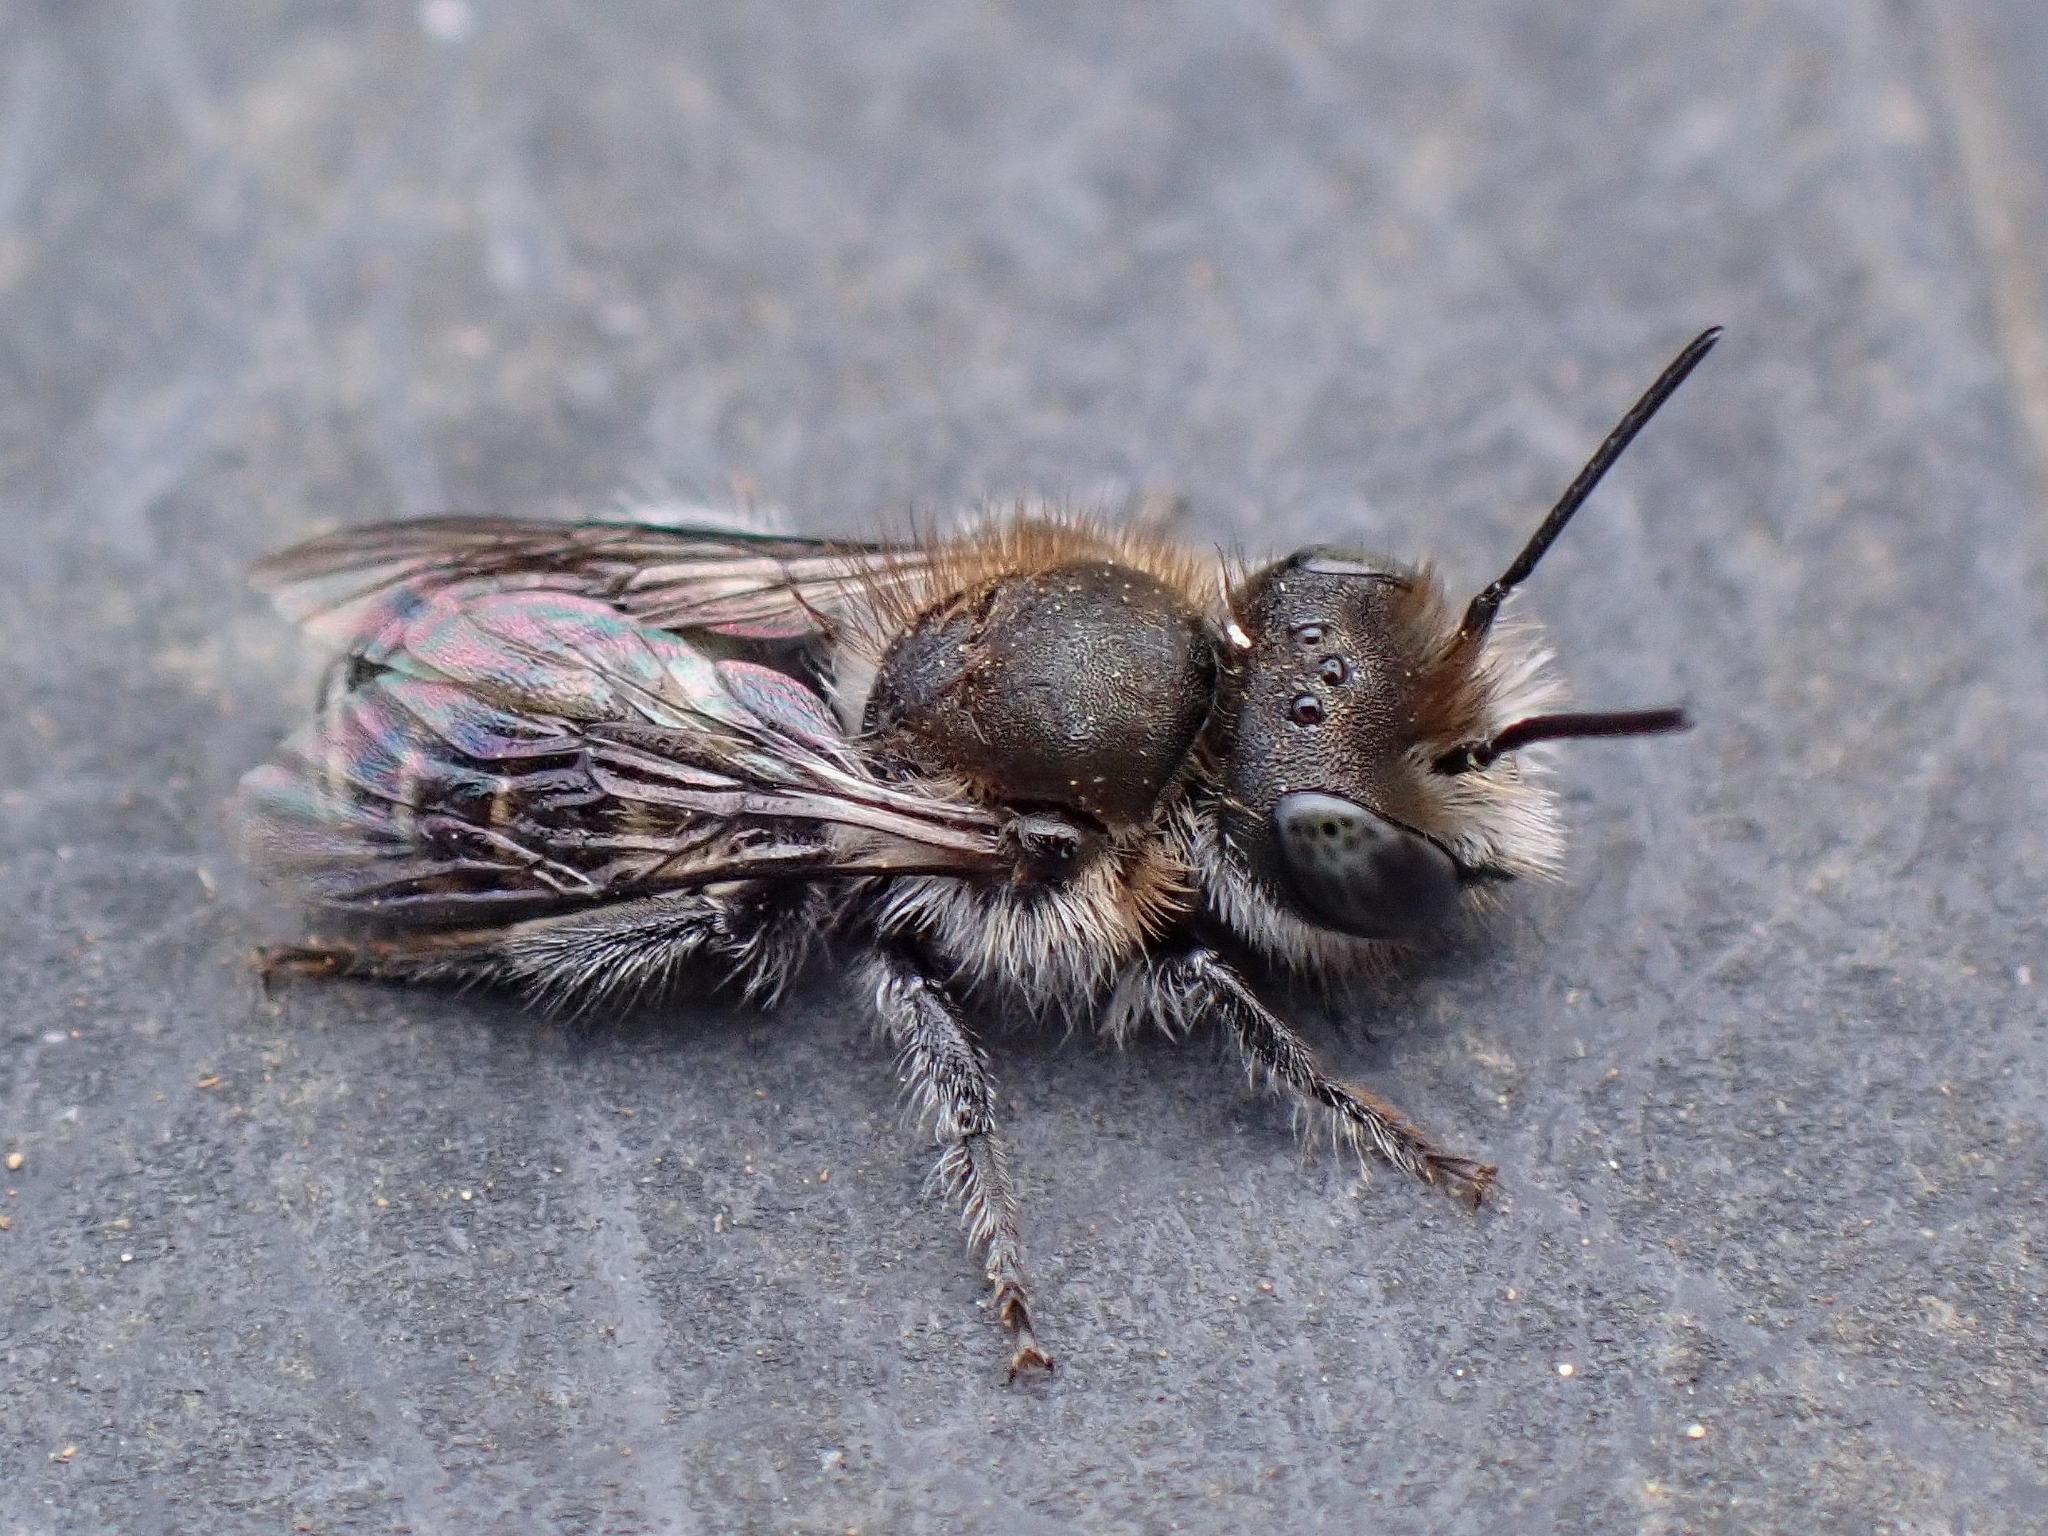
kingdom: Animalia
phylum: Arthropoda
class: Insecta
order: Hymenoptera
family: Megachilidae
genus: Osmia
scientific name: Osmia submicans
